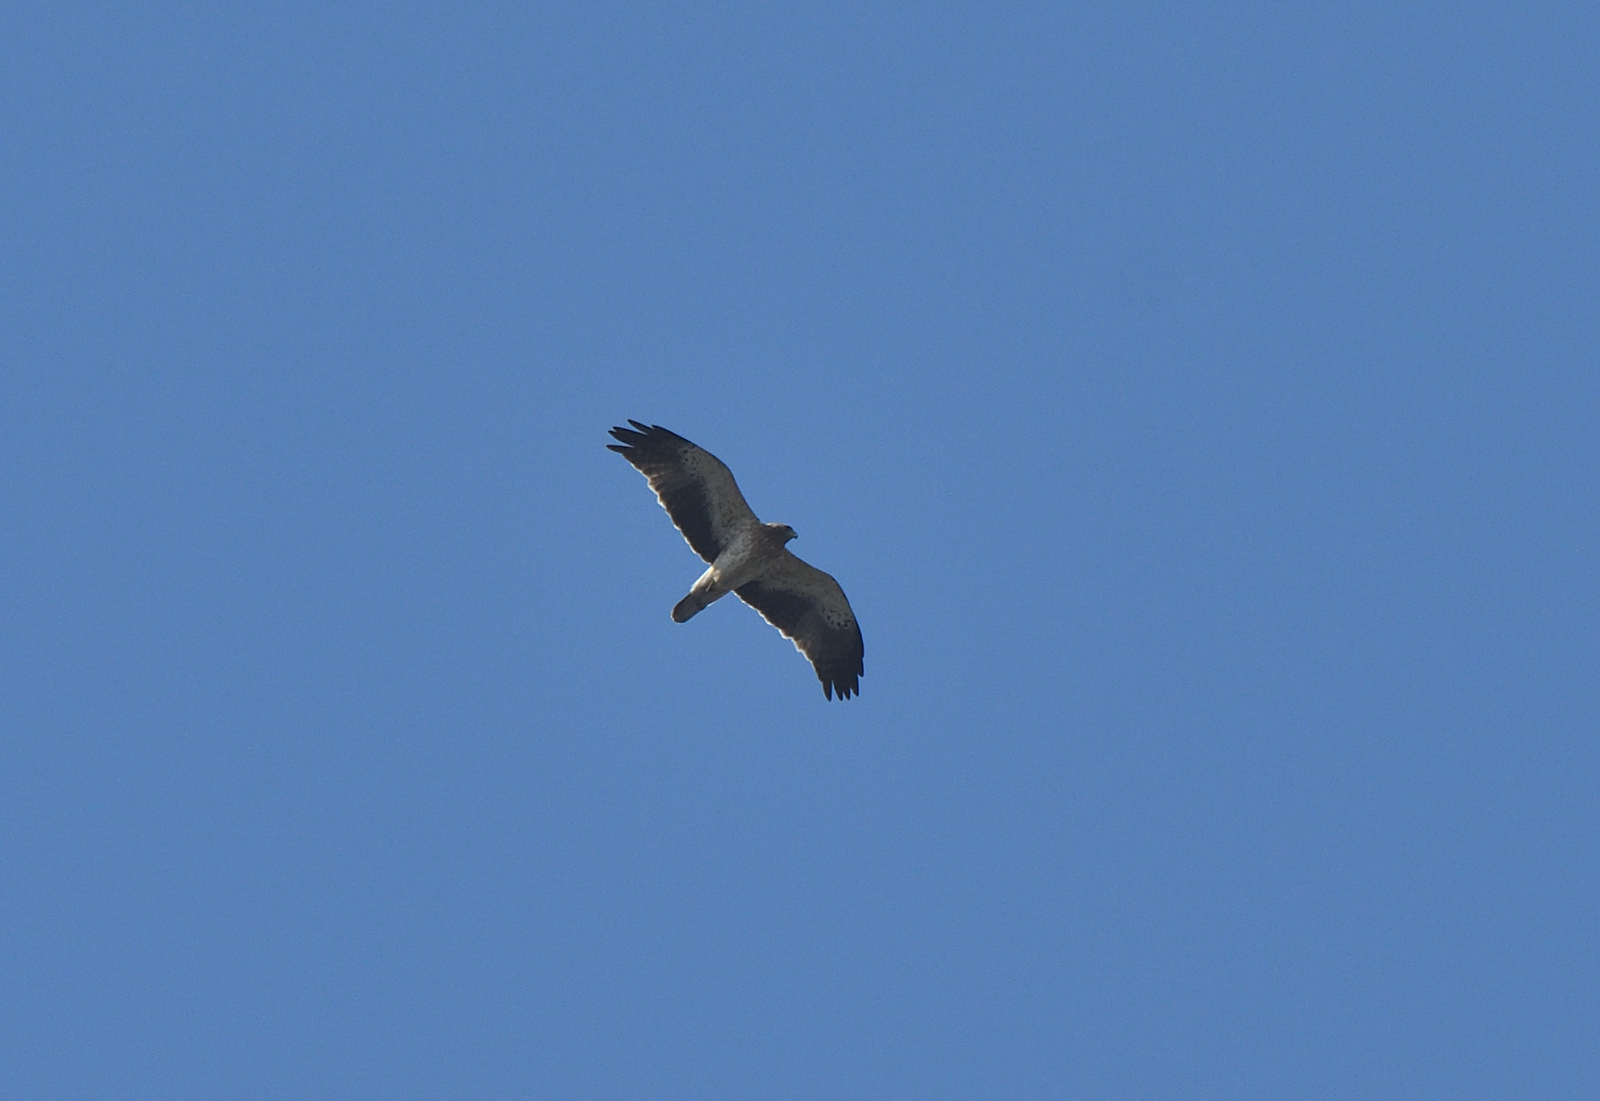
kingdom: Animalia
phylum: Chordata
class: Aves
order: Accipitriformes
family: Accipitridae
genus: Hieraaetus
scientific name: Hieraaetus pennatus
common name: Booted eagle
